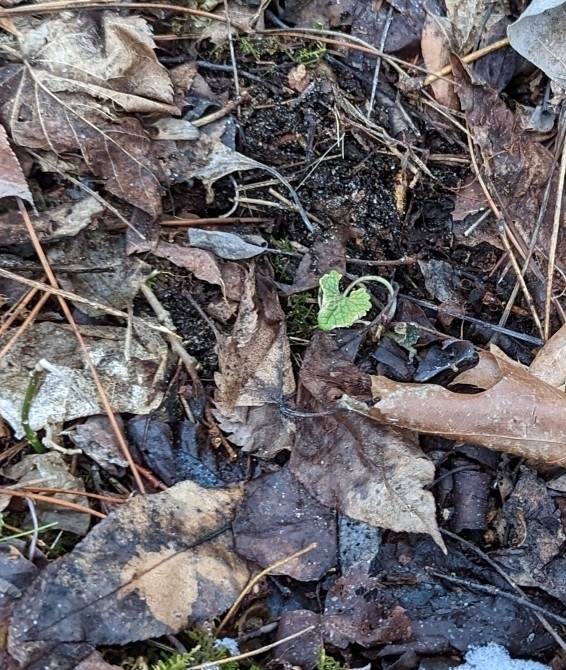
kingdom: Plantae
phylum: Tracheophyta
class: Magnoliopsida
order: Brassicales
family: Brassicaceae
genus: Alliaria
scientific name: Alliaria petiolata
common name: Garlic mustard
